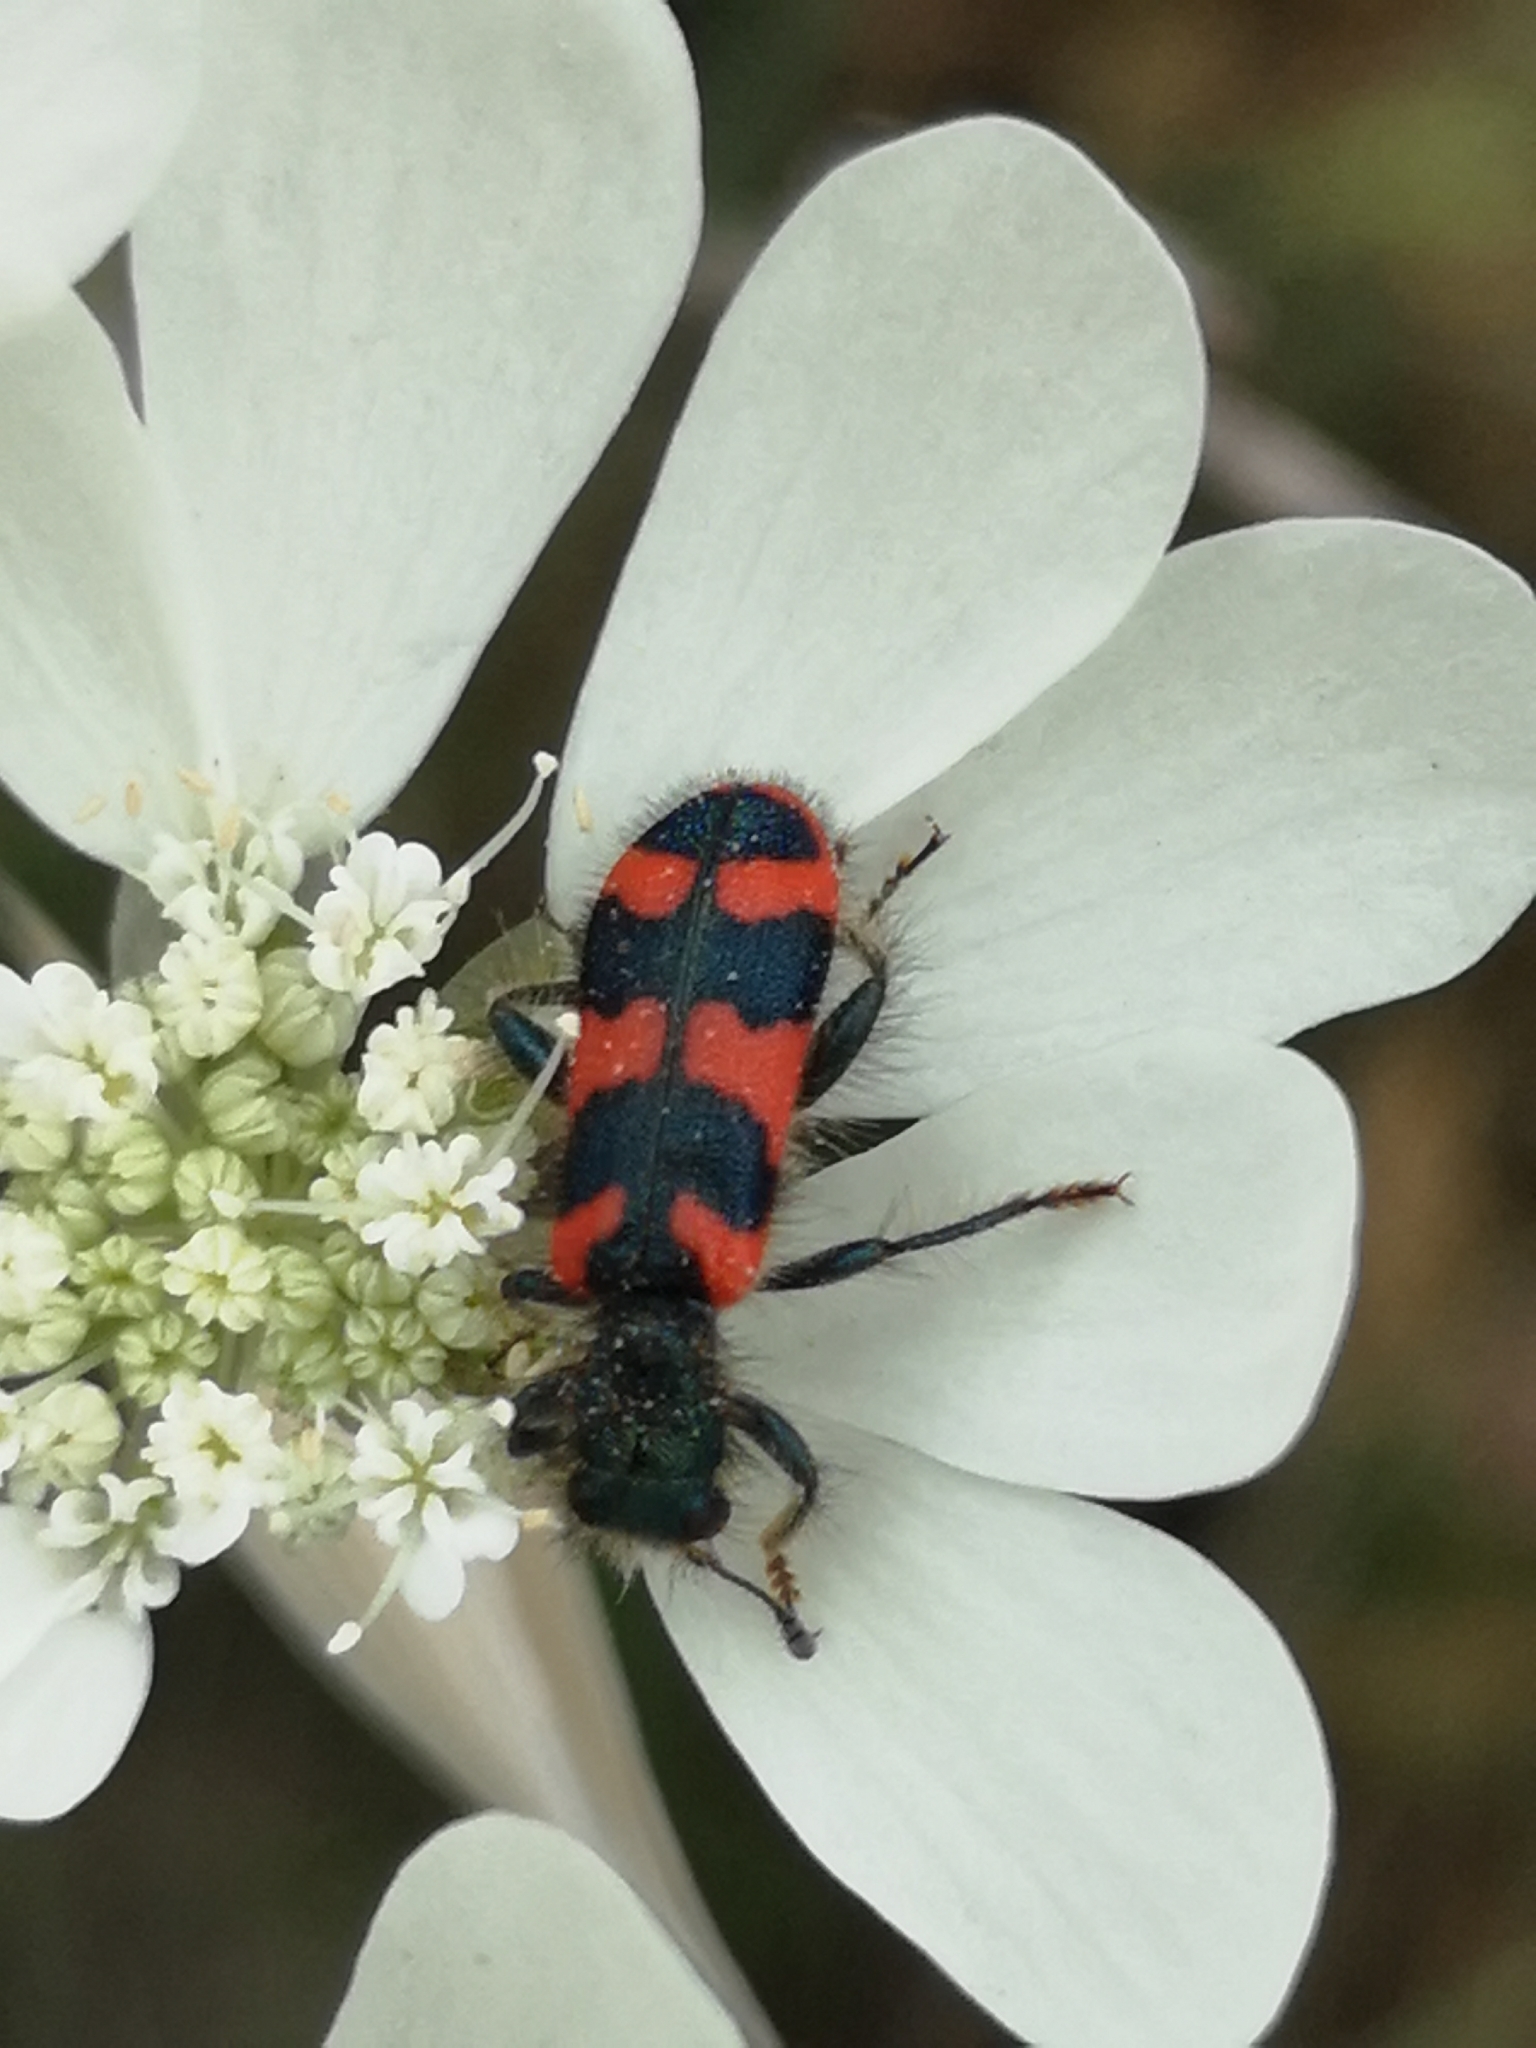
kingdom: Animalia
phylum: Arthropoda
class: Insecta
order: Coleoptera
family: Cleridae
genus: Trichodes
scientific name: Trichodes alvearius
